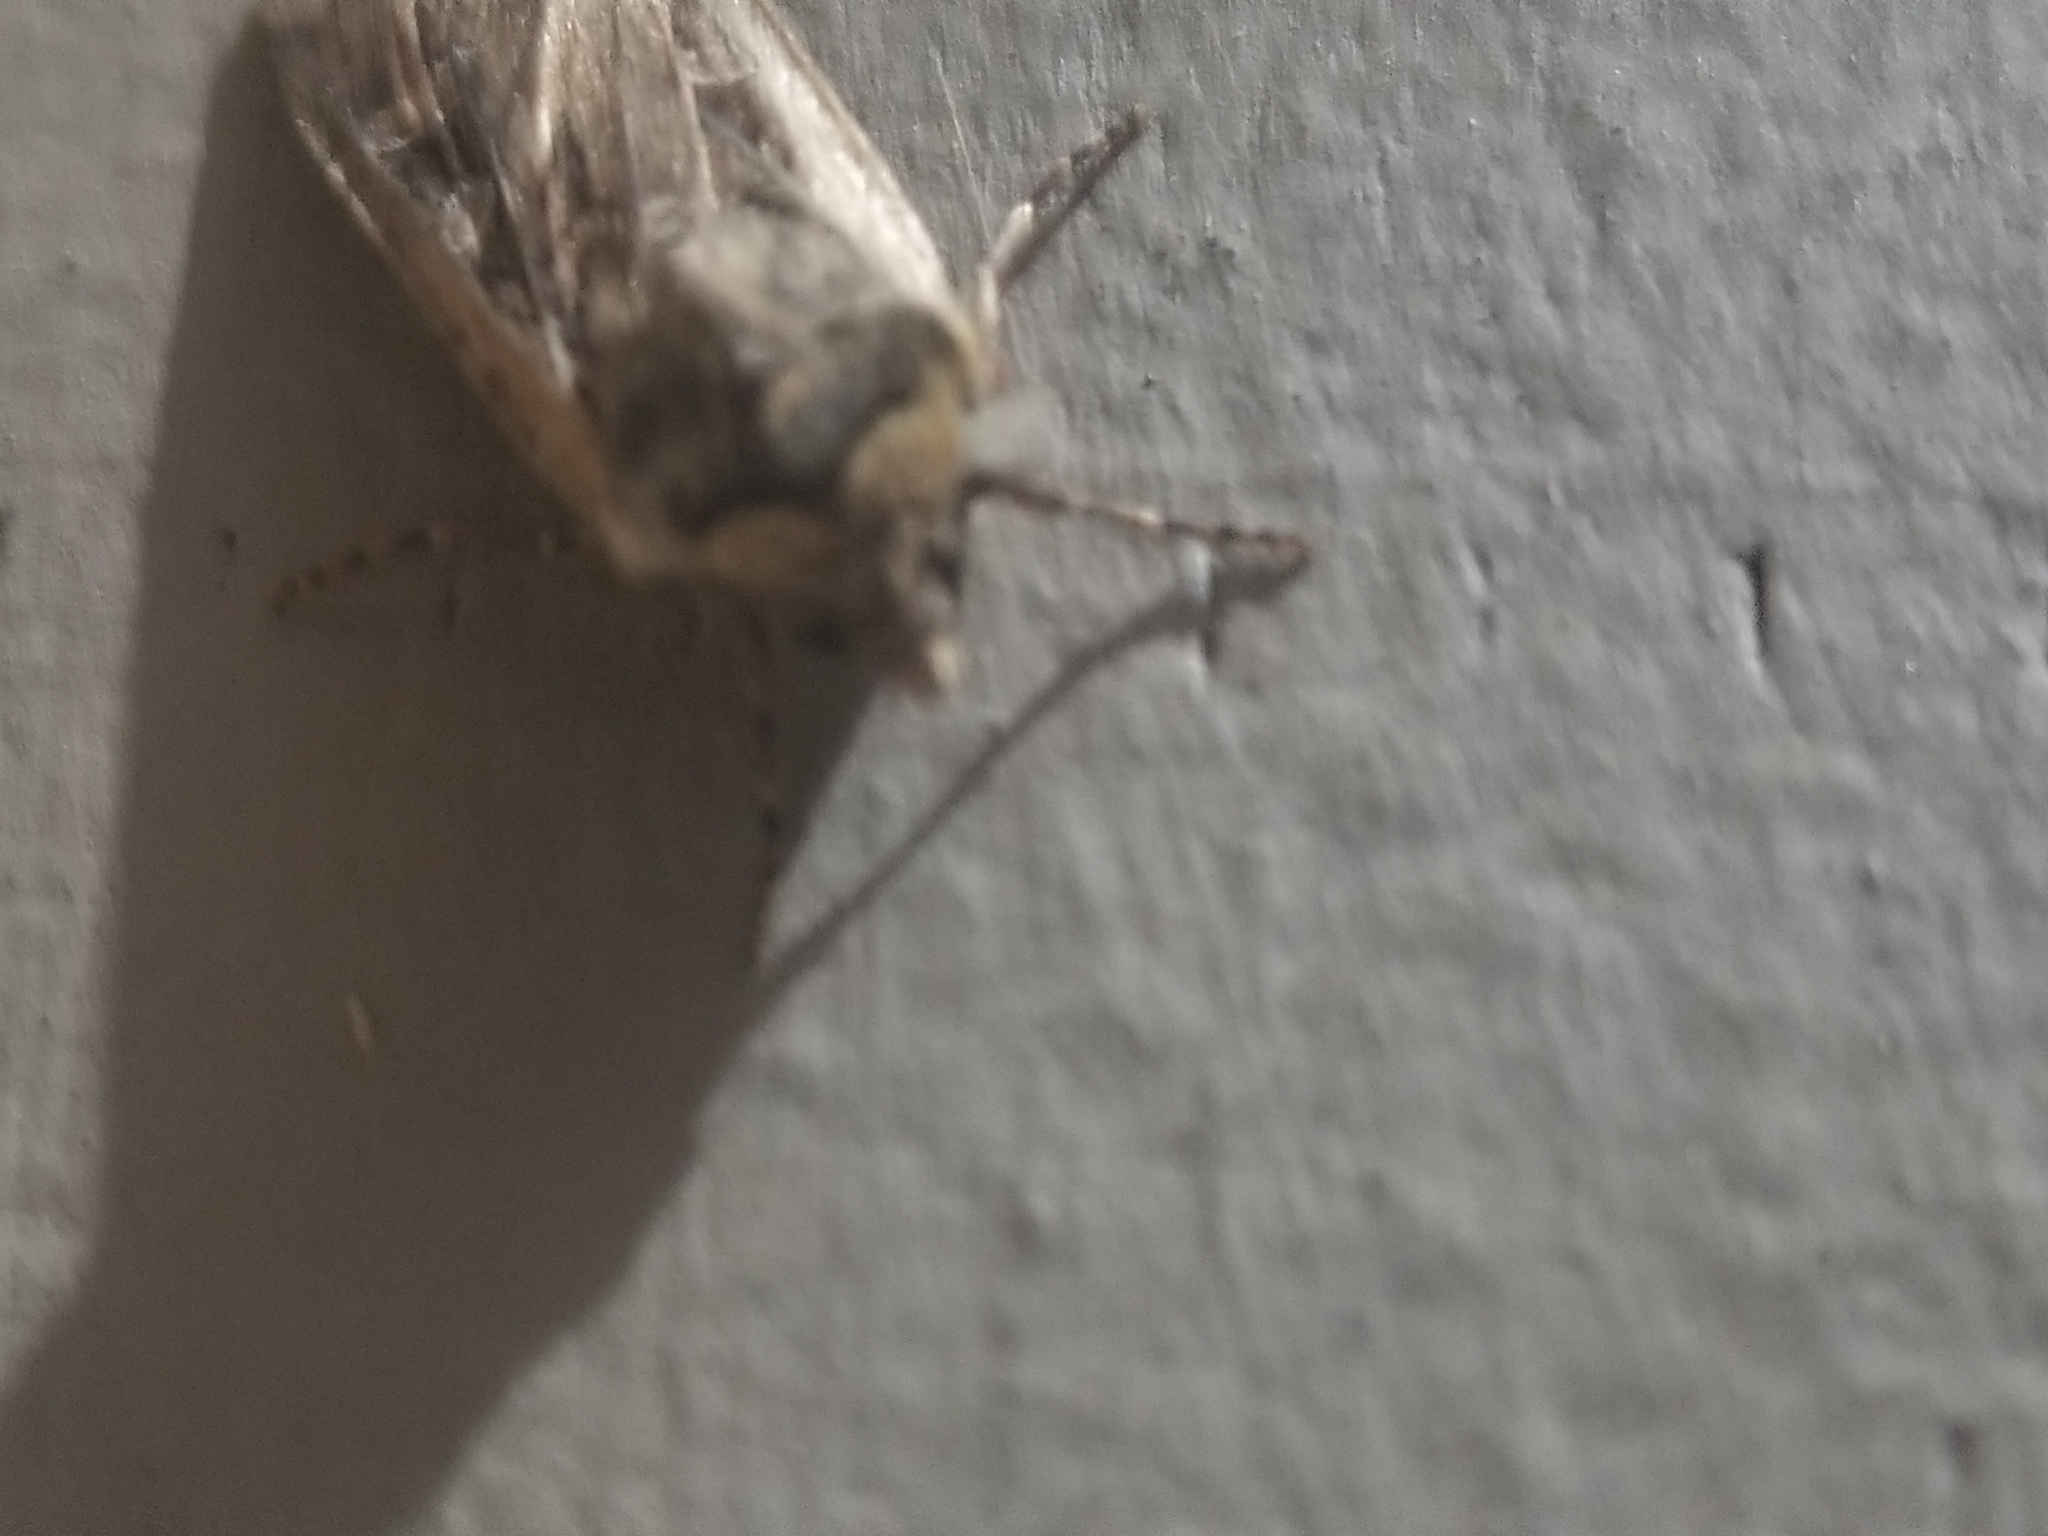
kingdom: Animalia
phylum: Arthropoda
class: Insecta
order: Lepidoptera
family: Noctuidae
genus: Euxoa
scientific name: Euxoa auxiliaris
